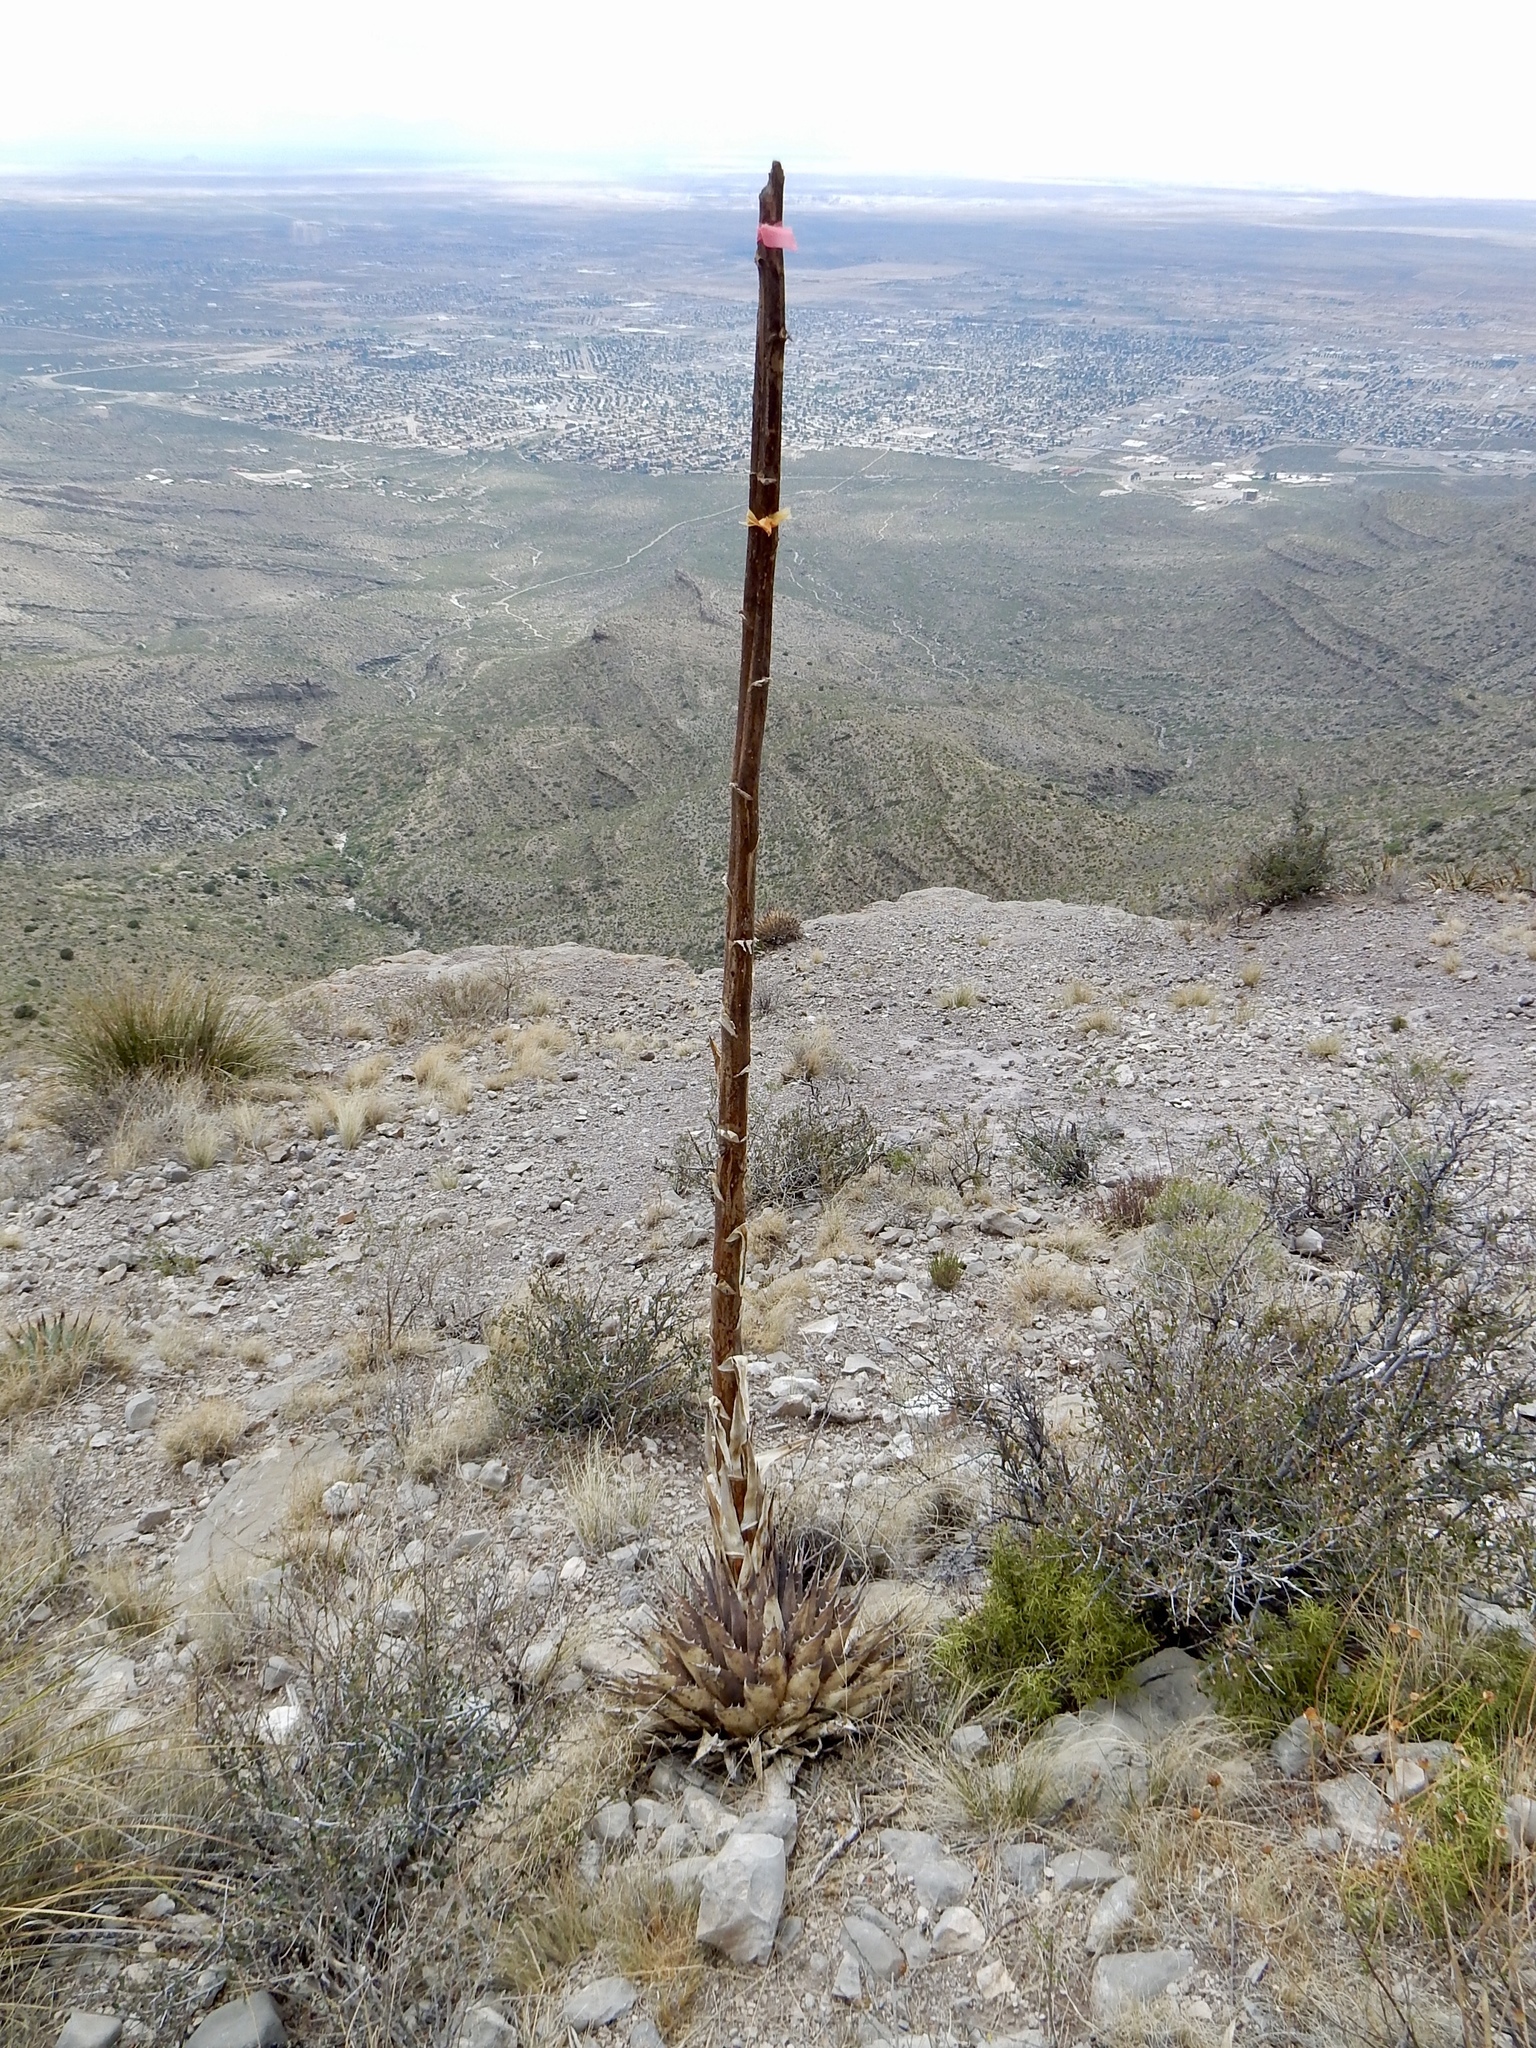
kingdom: Plantae
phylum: Tracheophyta
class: Liliopsida
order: Asparagales
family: Asparagaceae
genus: Agave
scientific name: Agave parryi
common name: Parry's agave
